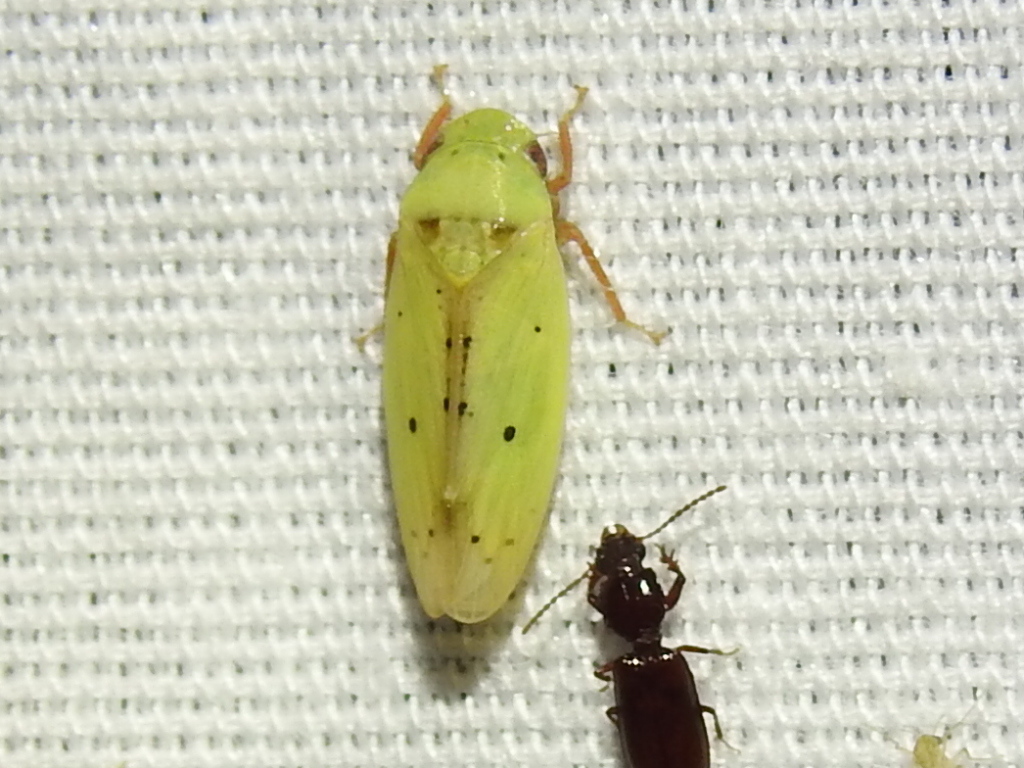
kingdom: Animalia
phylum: Arthropoda
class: Insecta
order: Hemiptera
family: Cicadellidae
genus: Ponana
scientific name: Ponana
